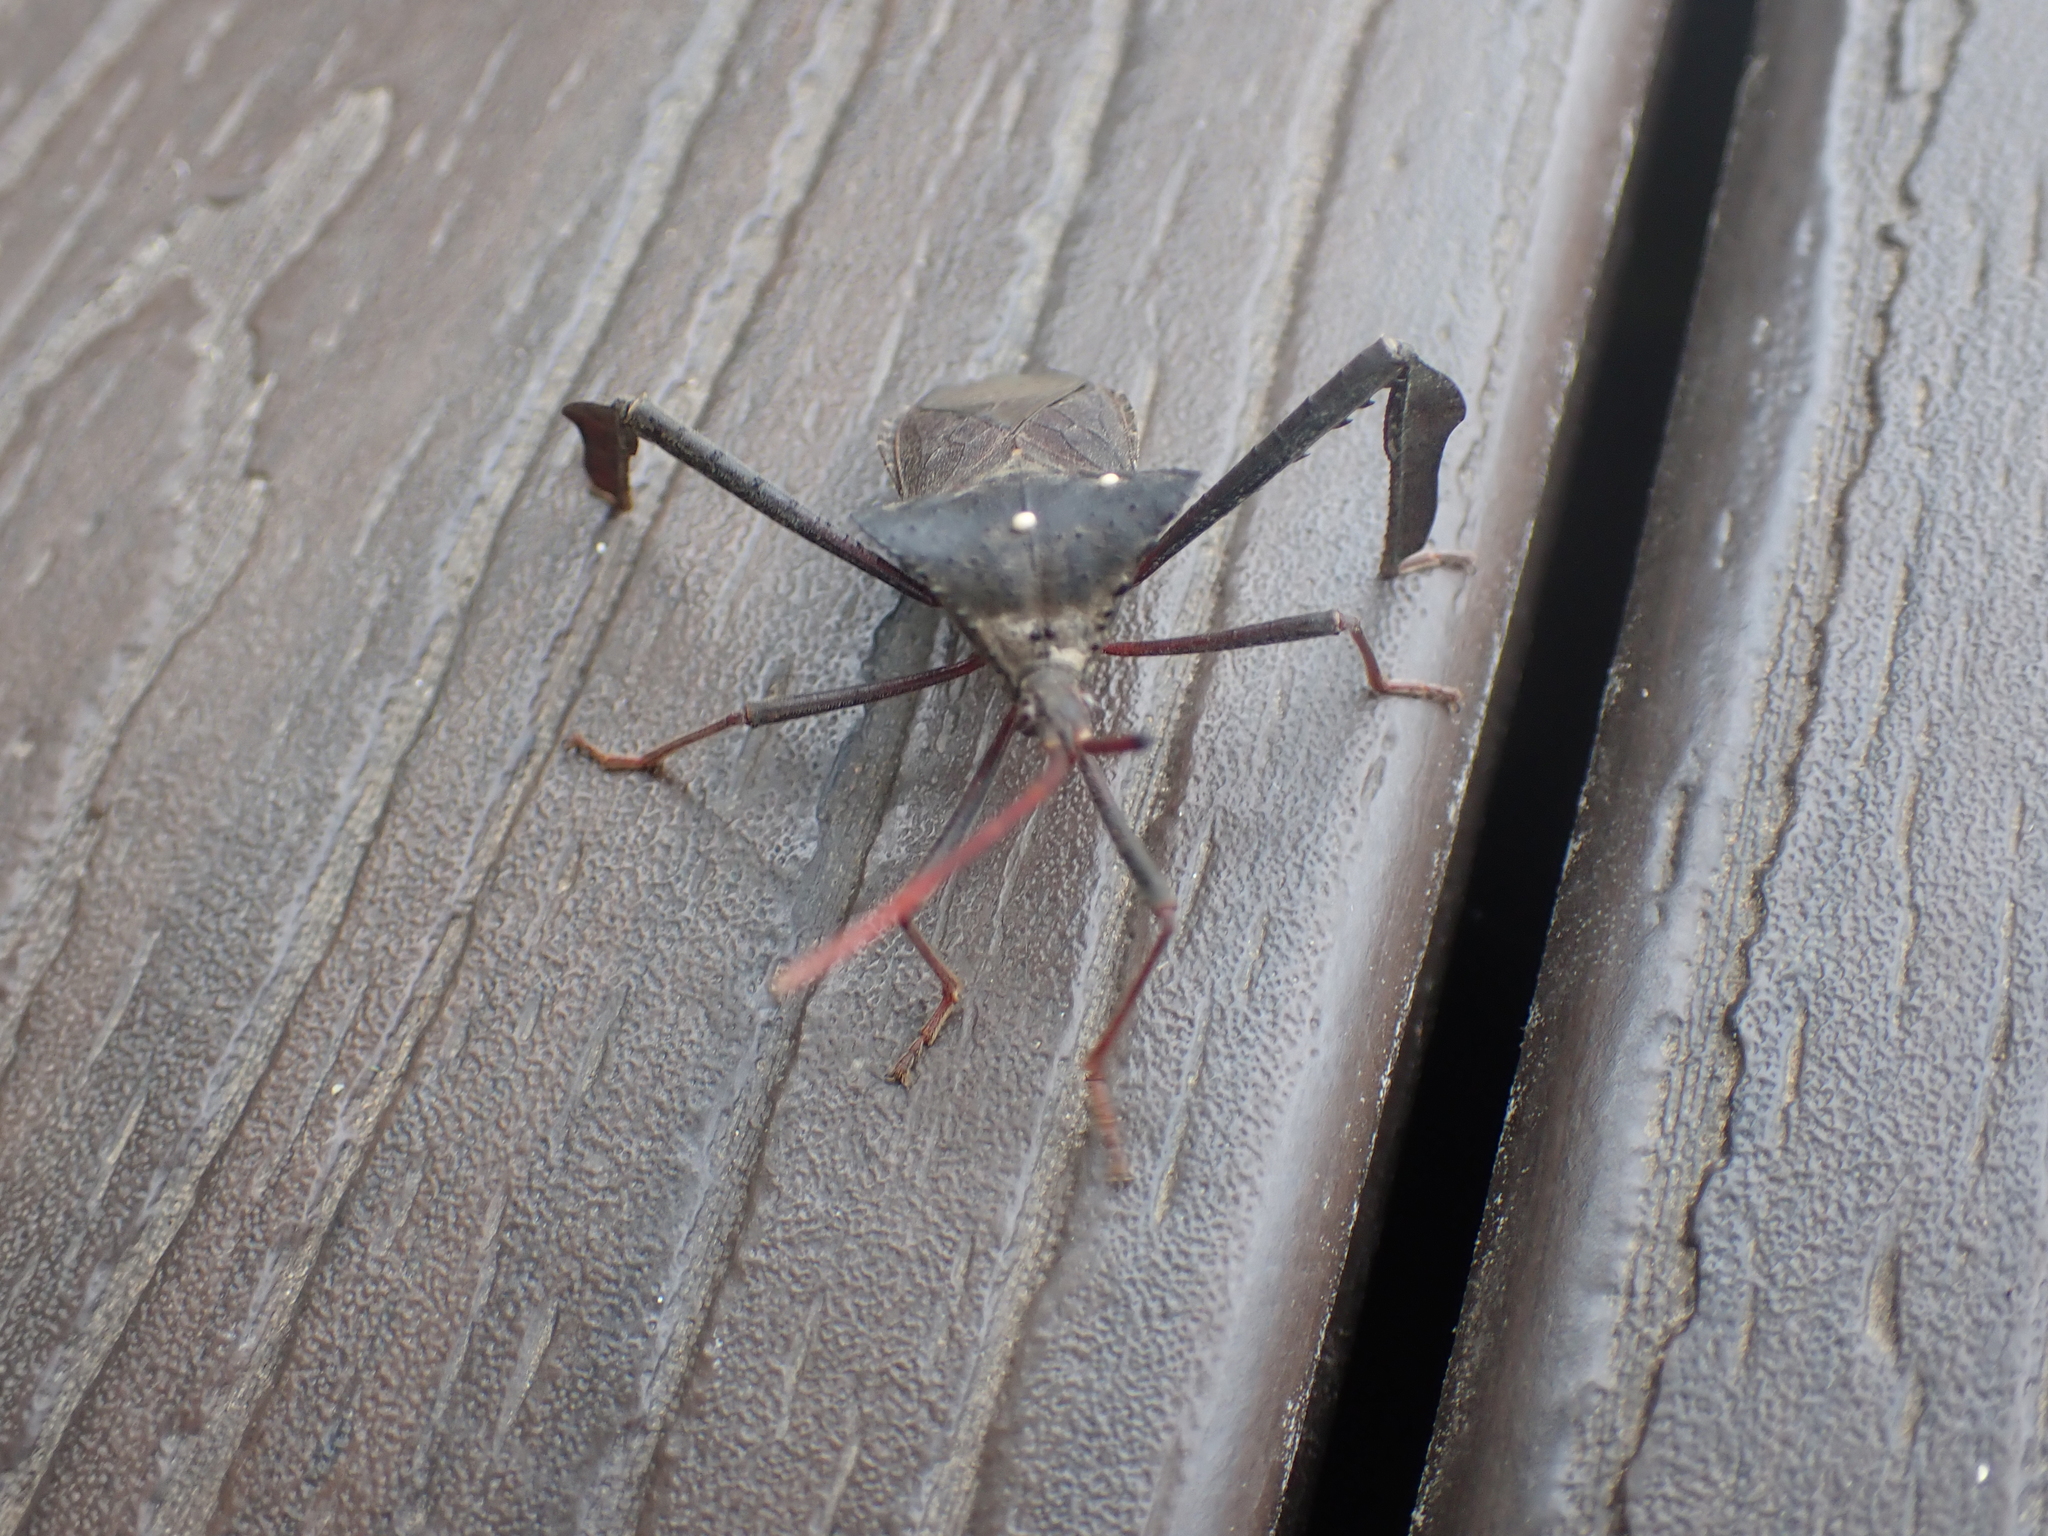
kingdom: Animalia
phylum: Arthropoda
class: Insecta
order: Hemiptera
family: Coreidae
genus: Acanthocephala
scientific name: Acanthocephala declivis
